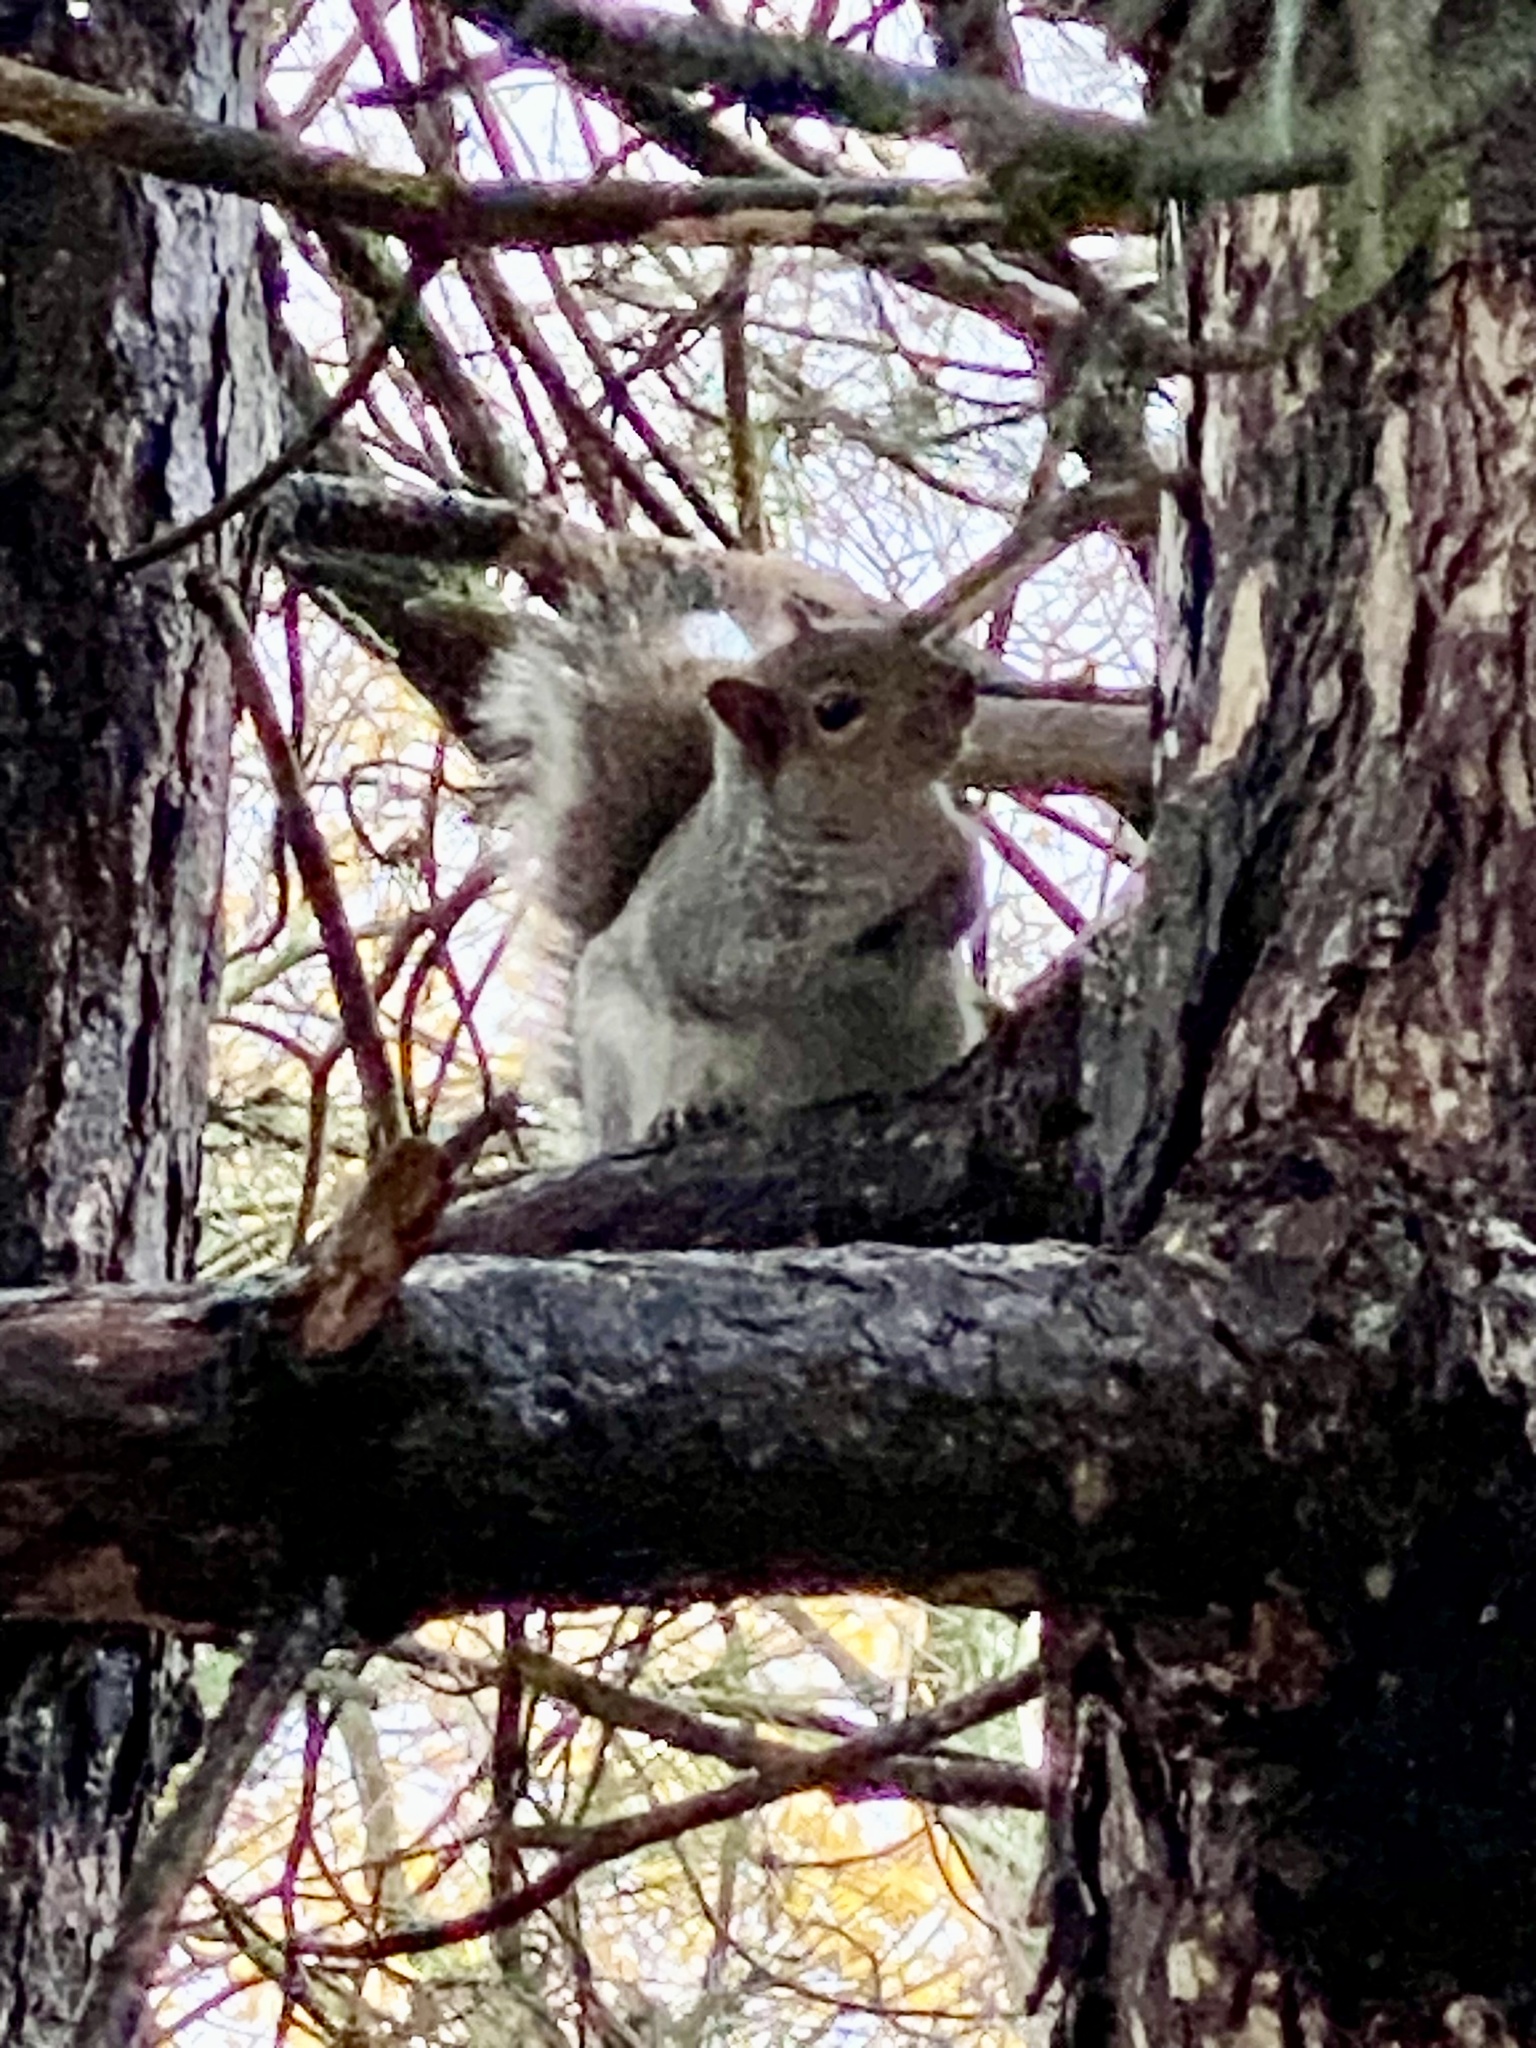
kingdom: Animalia
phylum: Chordata
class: Mammalia
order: Rodentia
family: Sciuridae
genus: Sciurus
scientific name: Sciurus carolinensis
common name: Eastern gray squirrel
